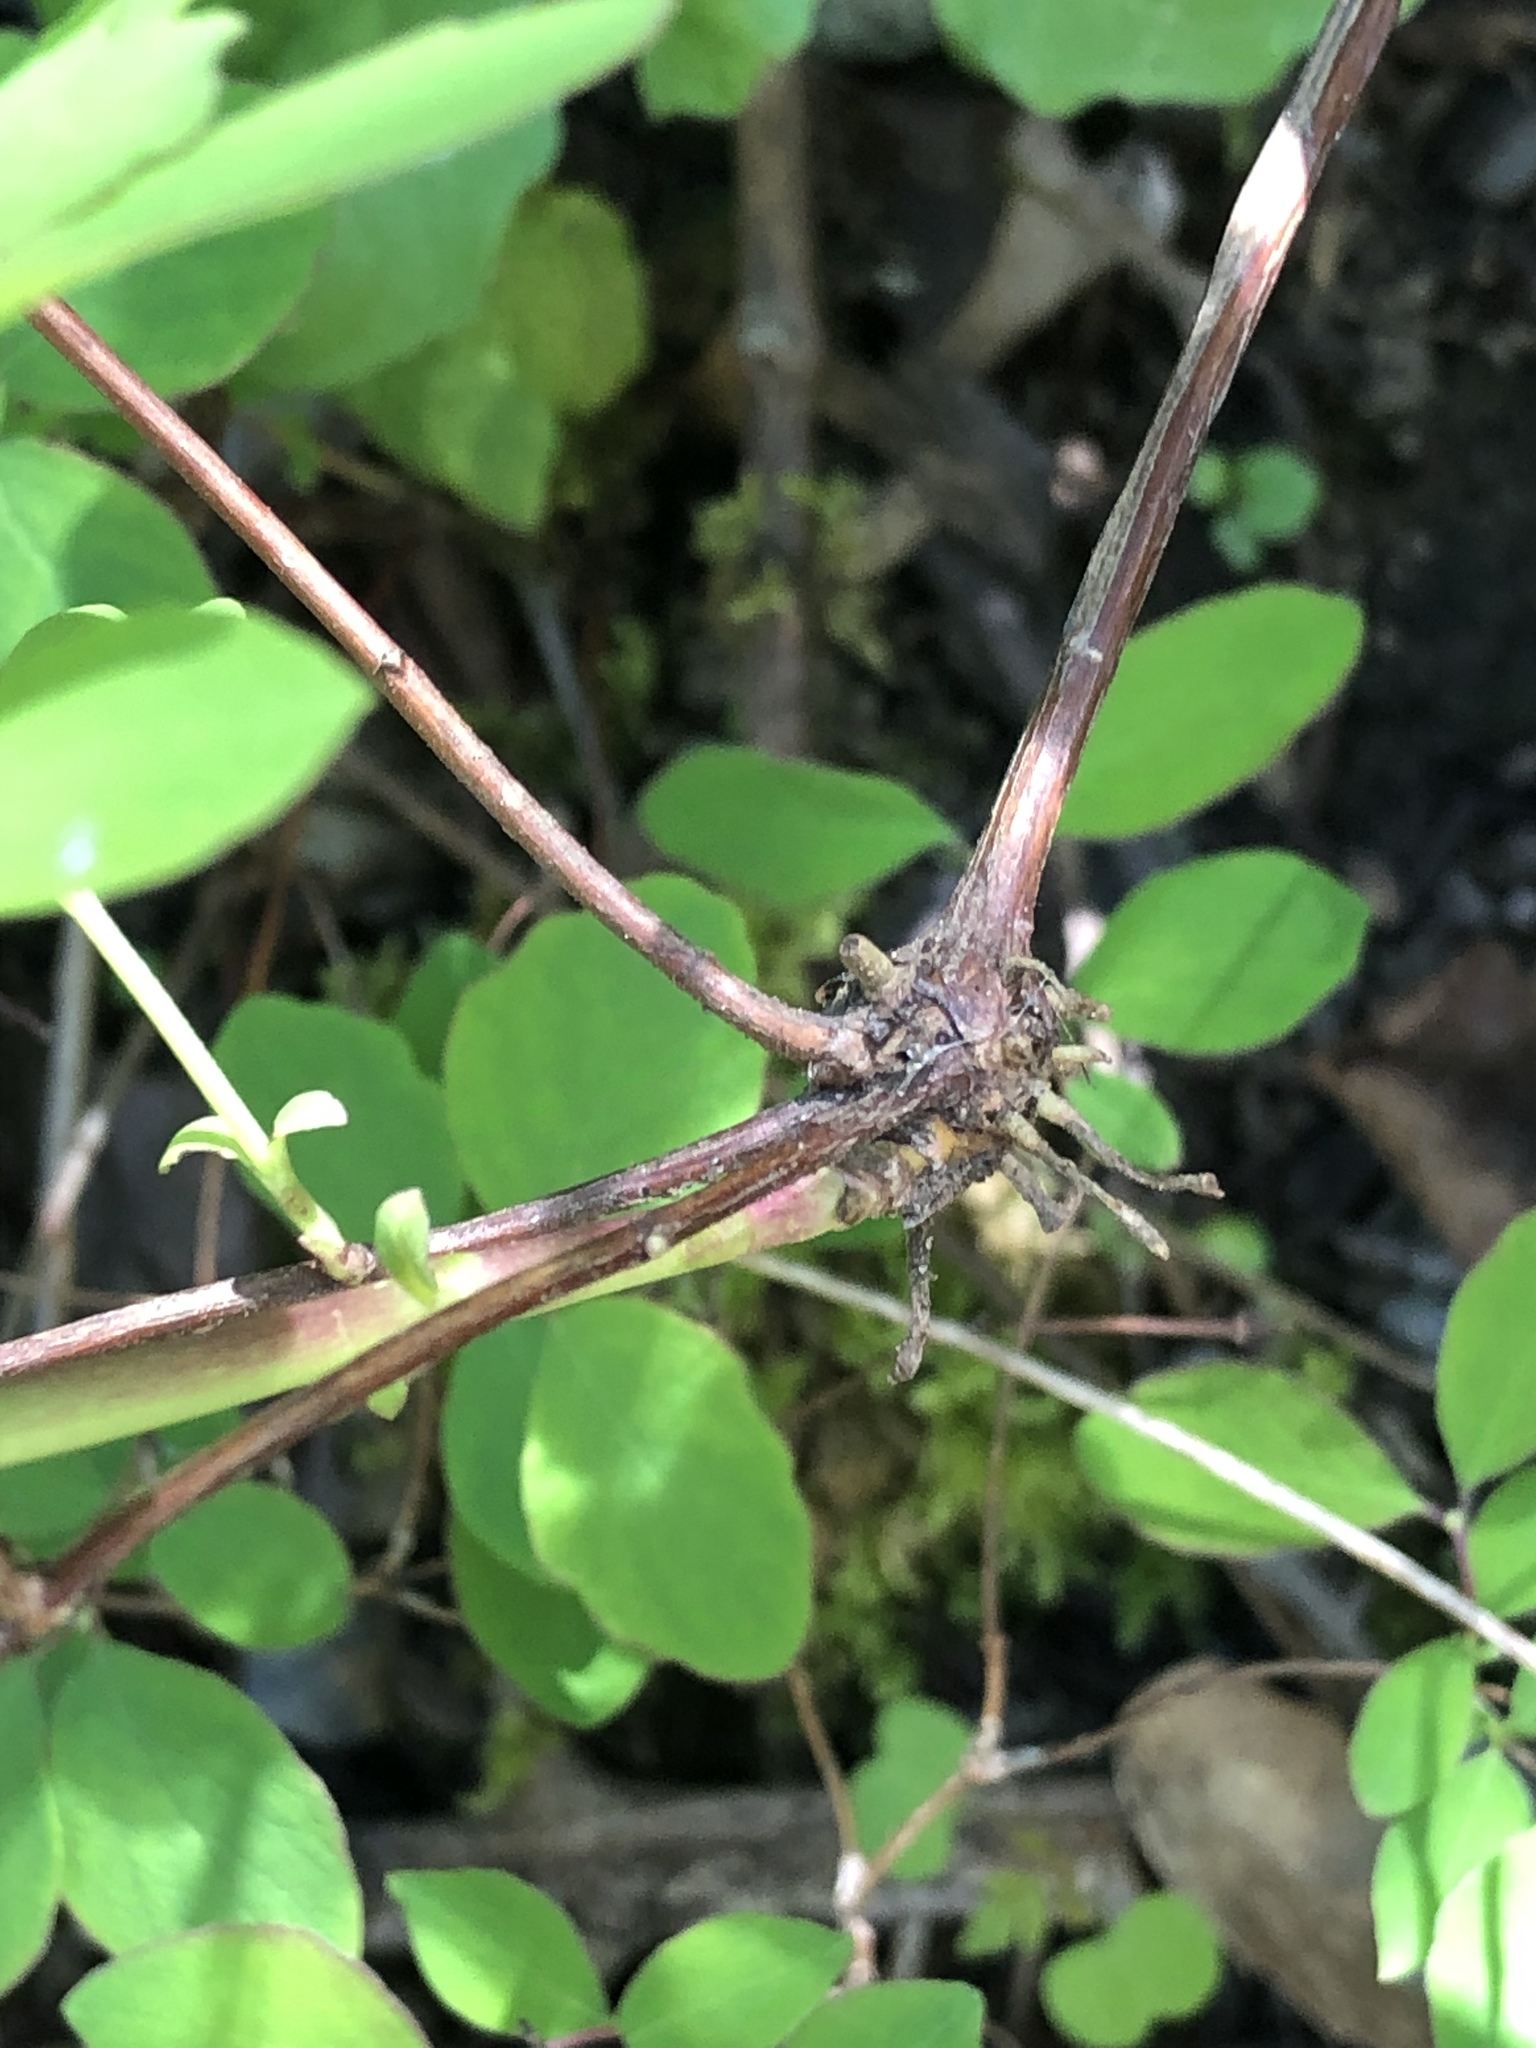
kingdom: Plantae
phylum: Tracheophyta
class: Magnoliopsida
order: Dipsacales
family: Caprifoliaceae
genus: Symphoricarpos
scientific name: Symphoricarpos mollis
